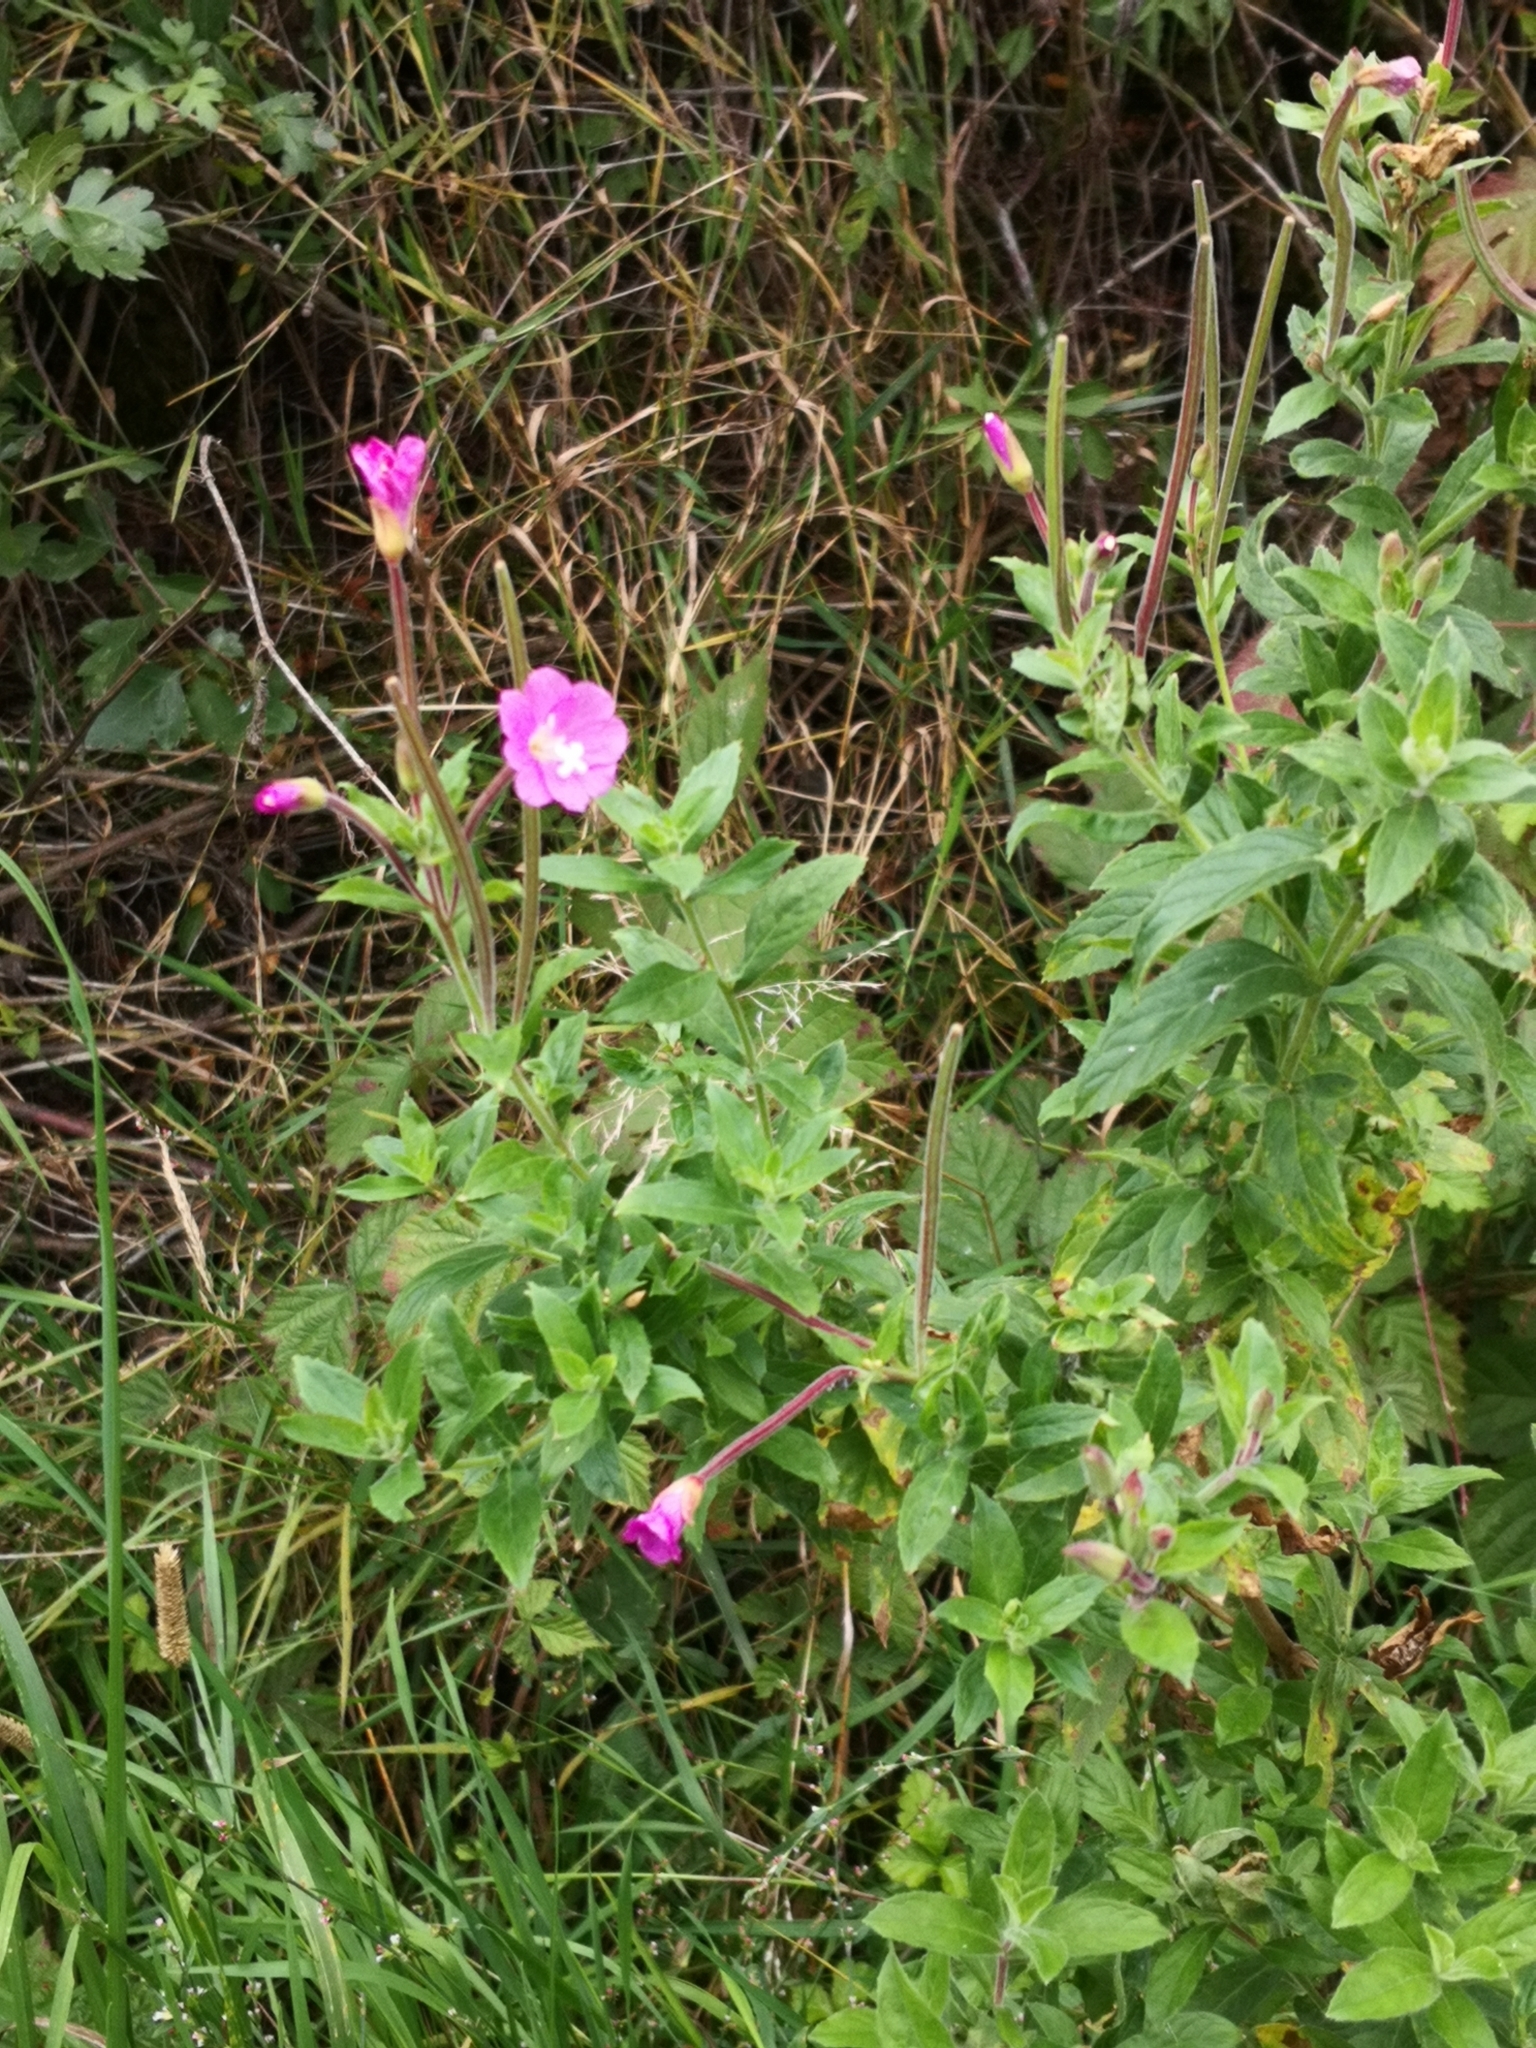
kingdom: Plantae
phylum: Tracheophyta
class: Magnoliopsida
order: Myrtales
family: Onagraceae
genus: Epilobium
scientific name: Epilobium hirsutum
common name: Great willowherb
